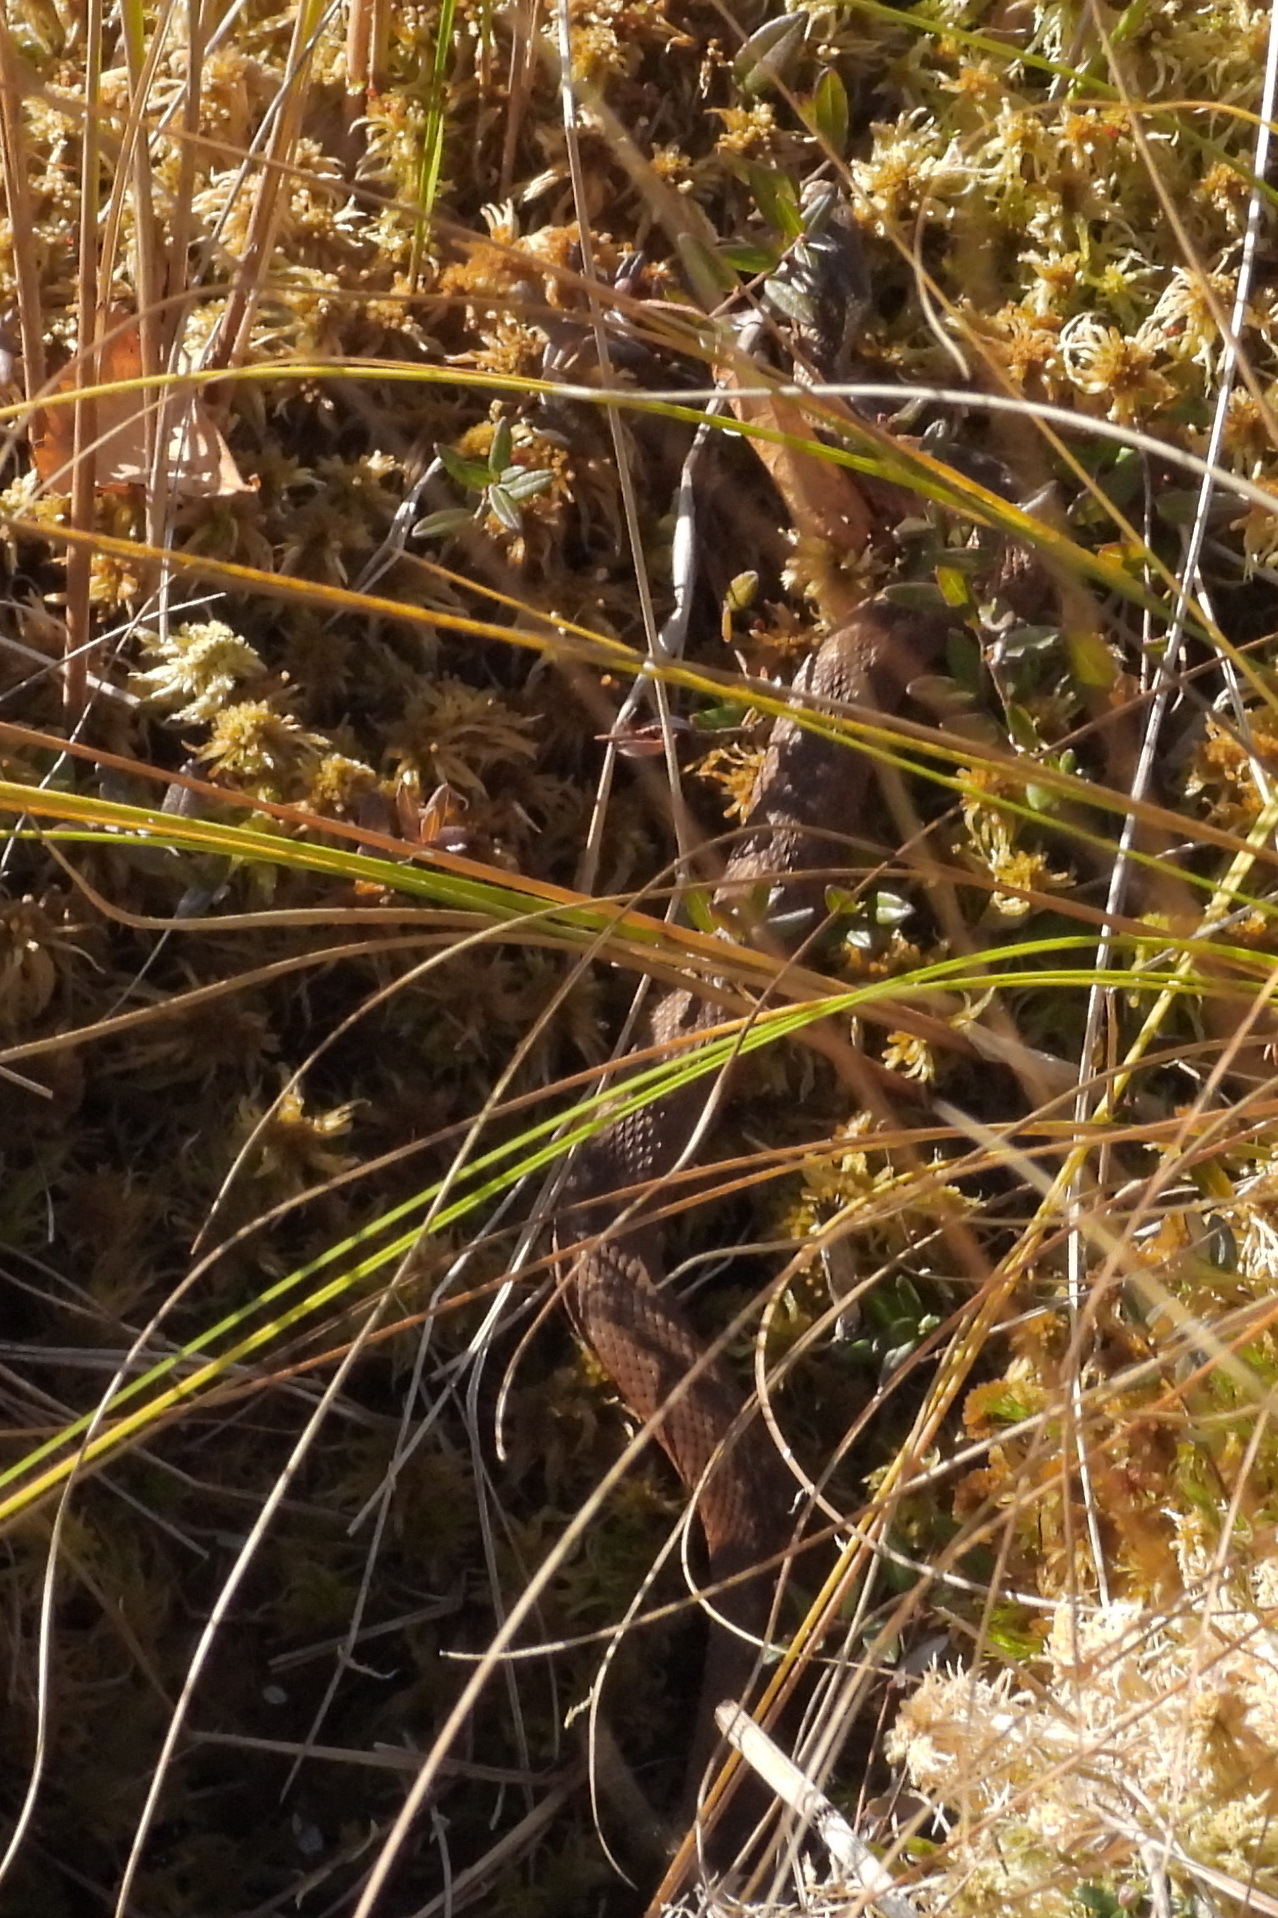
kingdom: Animalia
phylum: Chordata
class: Squamata
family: Viperidae
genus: Vipera
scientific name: Vipera berus
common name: Adder
